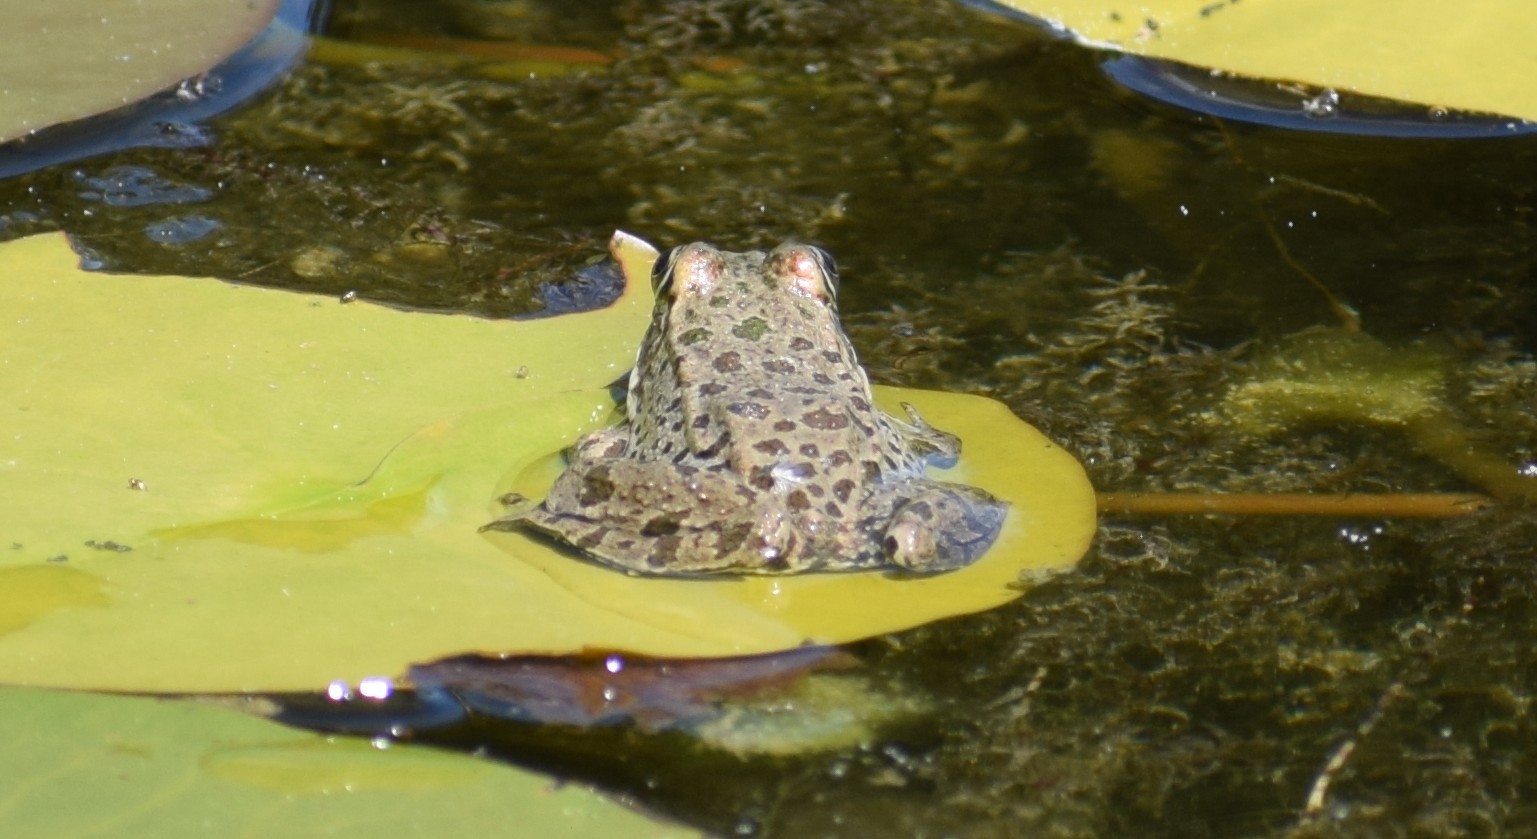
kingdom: Animalia
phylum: Chordata
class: Amphibia
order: Anura
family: Ranidae
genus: Pelophylax
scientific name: Pelophylax
